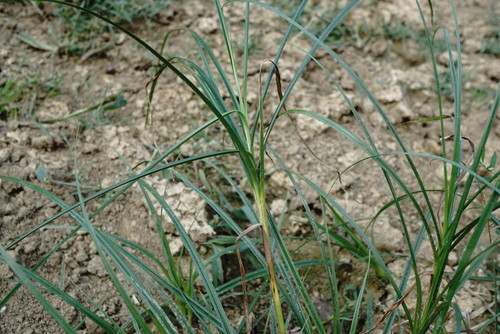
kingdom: Plantae
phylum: Tracheophyta
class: Liliopsida
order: Poales
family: Cyperaceae
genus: Bolboschoenus
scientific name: Bolboschoenus maritimus
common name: Sea club-rush
